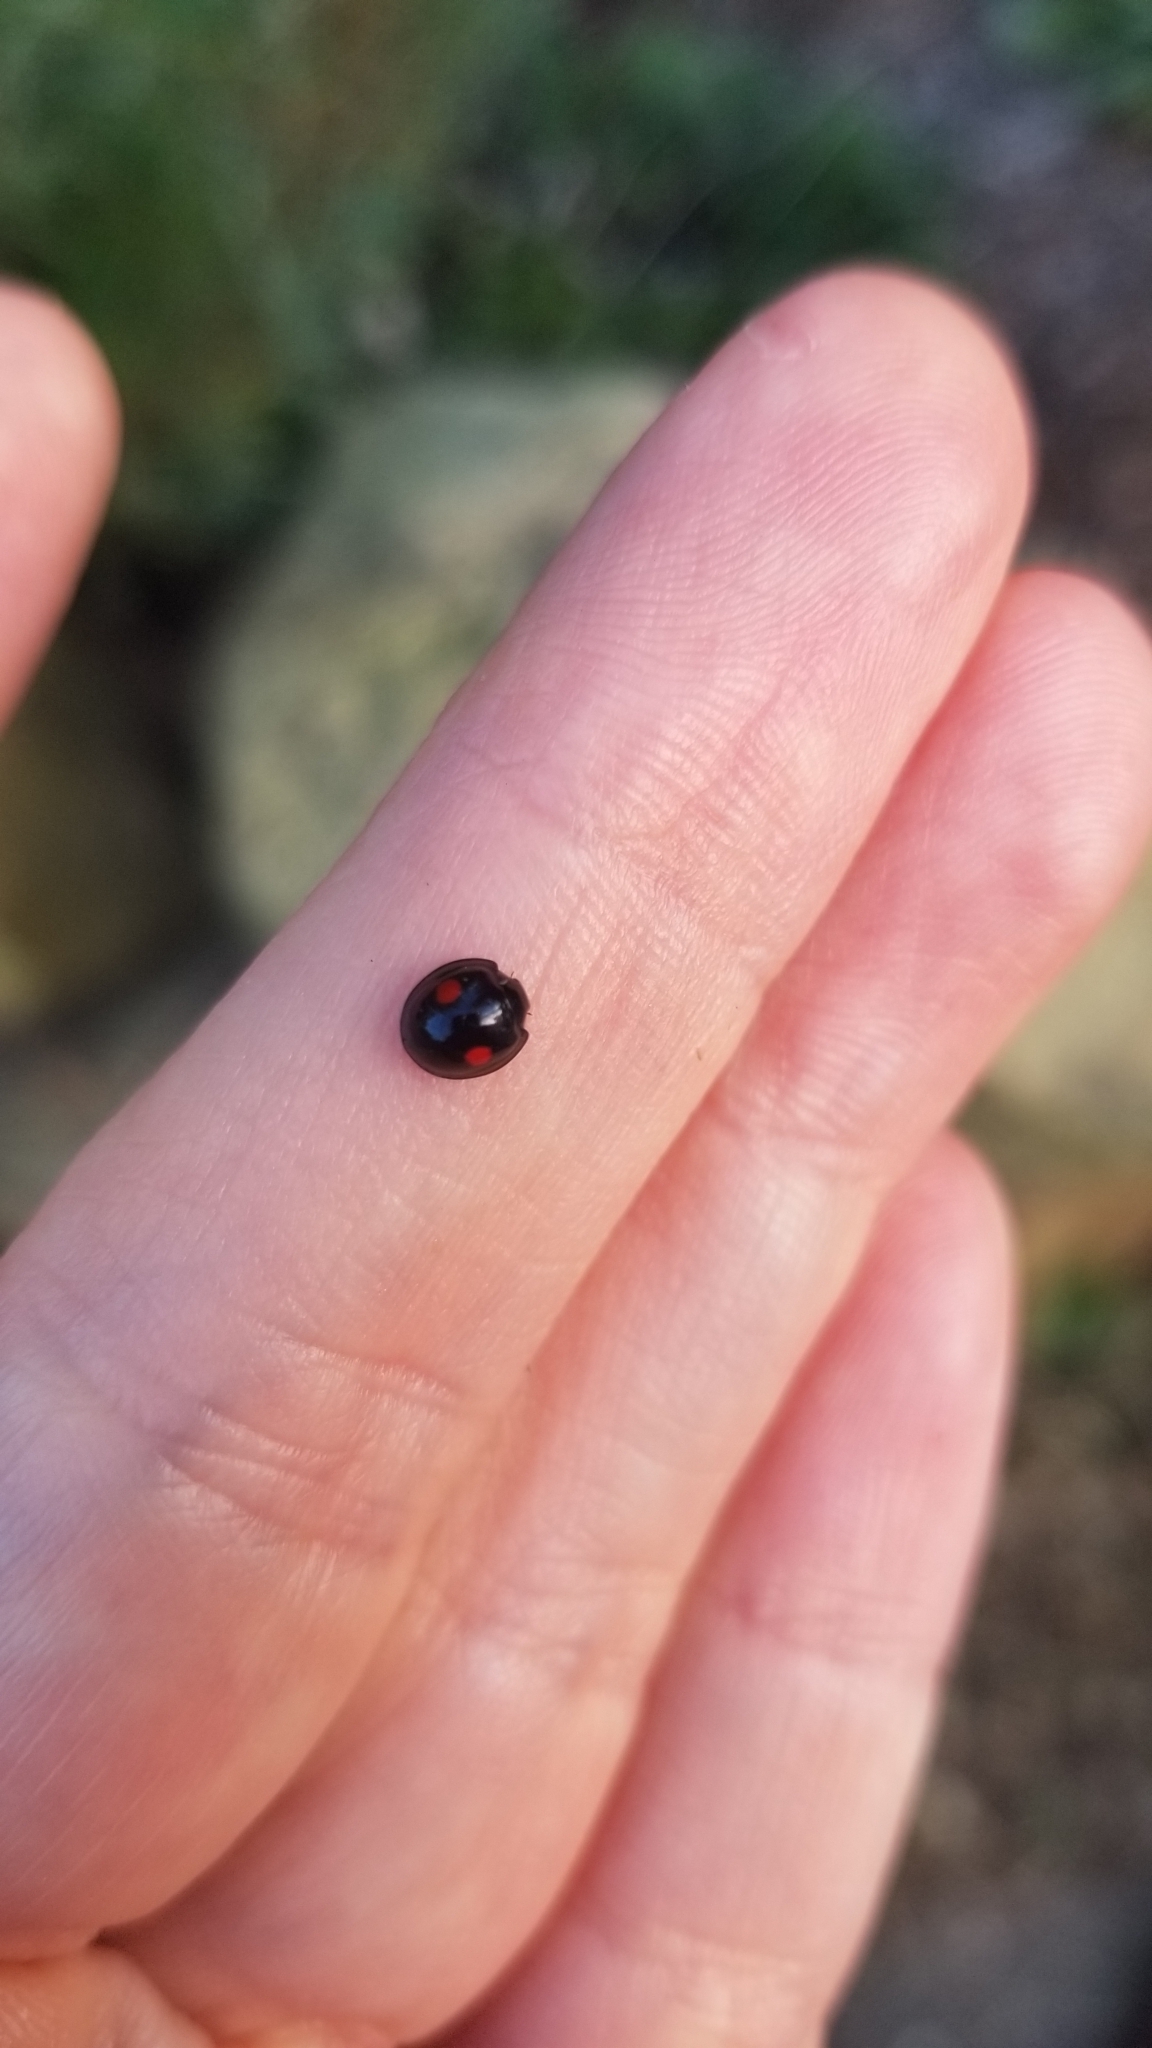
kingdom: Animalia
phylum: Arthropoda
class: Insecta
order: Coleoptera
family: Coccinellidae
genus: Chilocorus
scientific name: Chilocorus stigma
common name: Twicestabbed lady beetle
